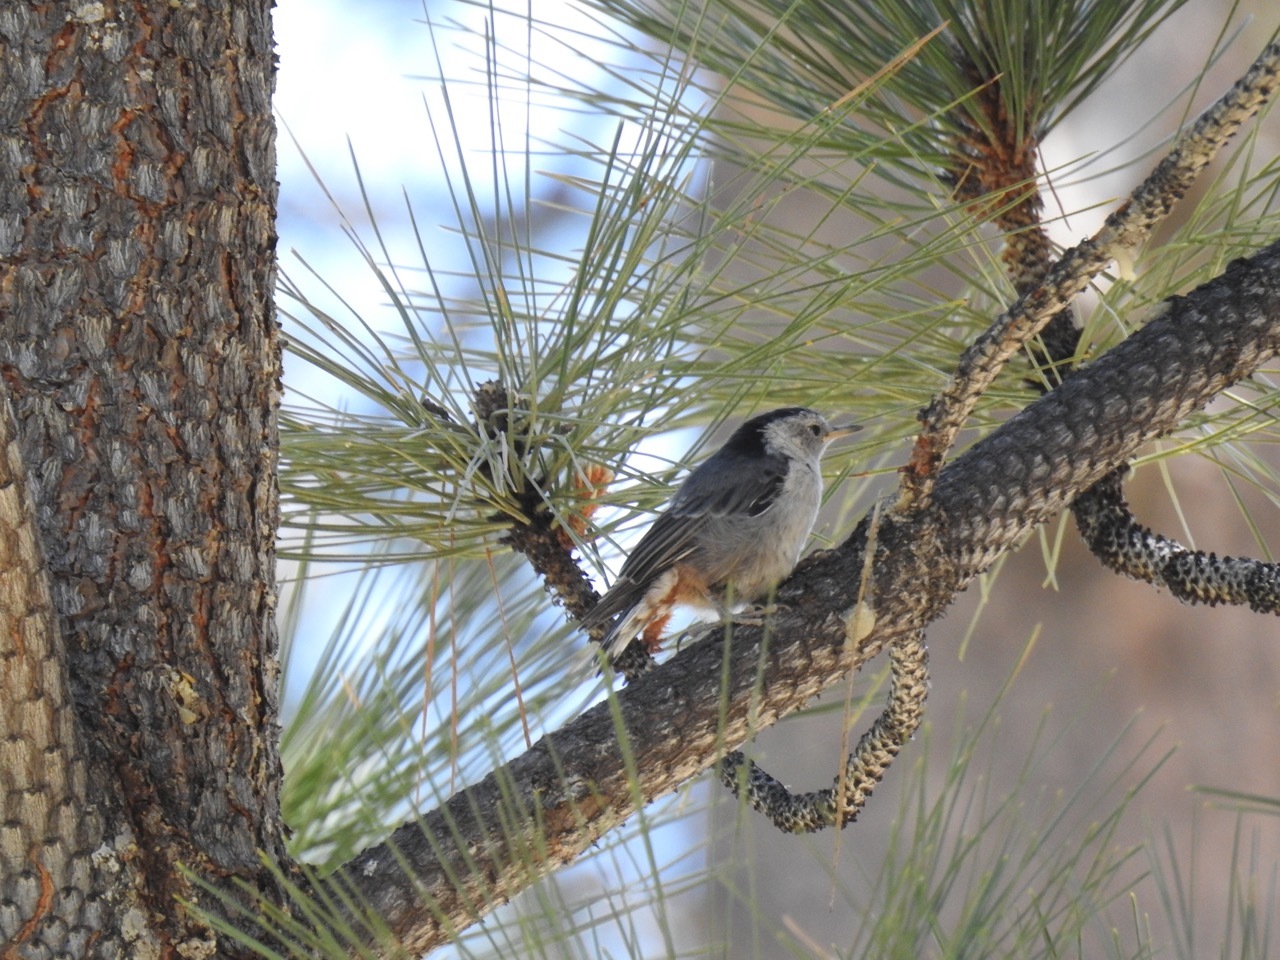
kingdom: Animalia
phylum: Chordata
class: Aves
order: Passeriformes
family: Sittidae
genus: Sitta
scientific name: Sitta carolinensis
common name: White-breasted nuthatch
